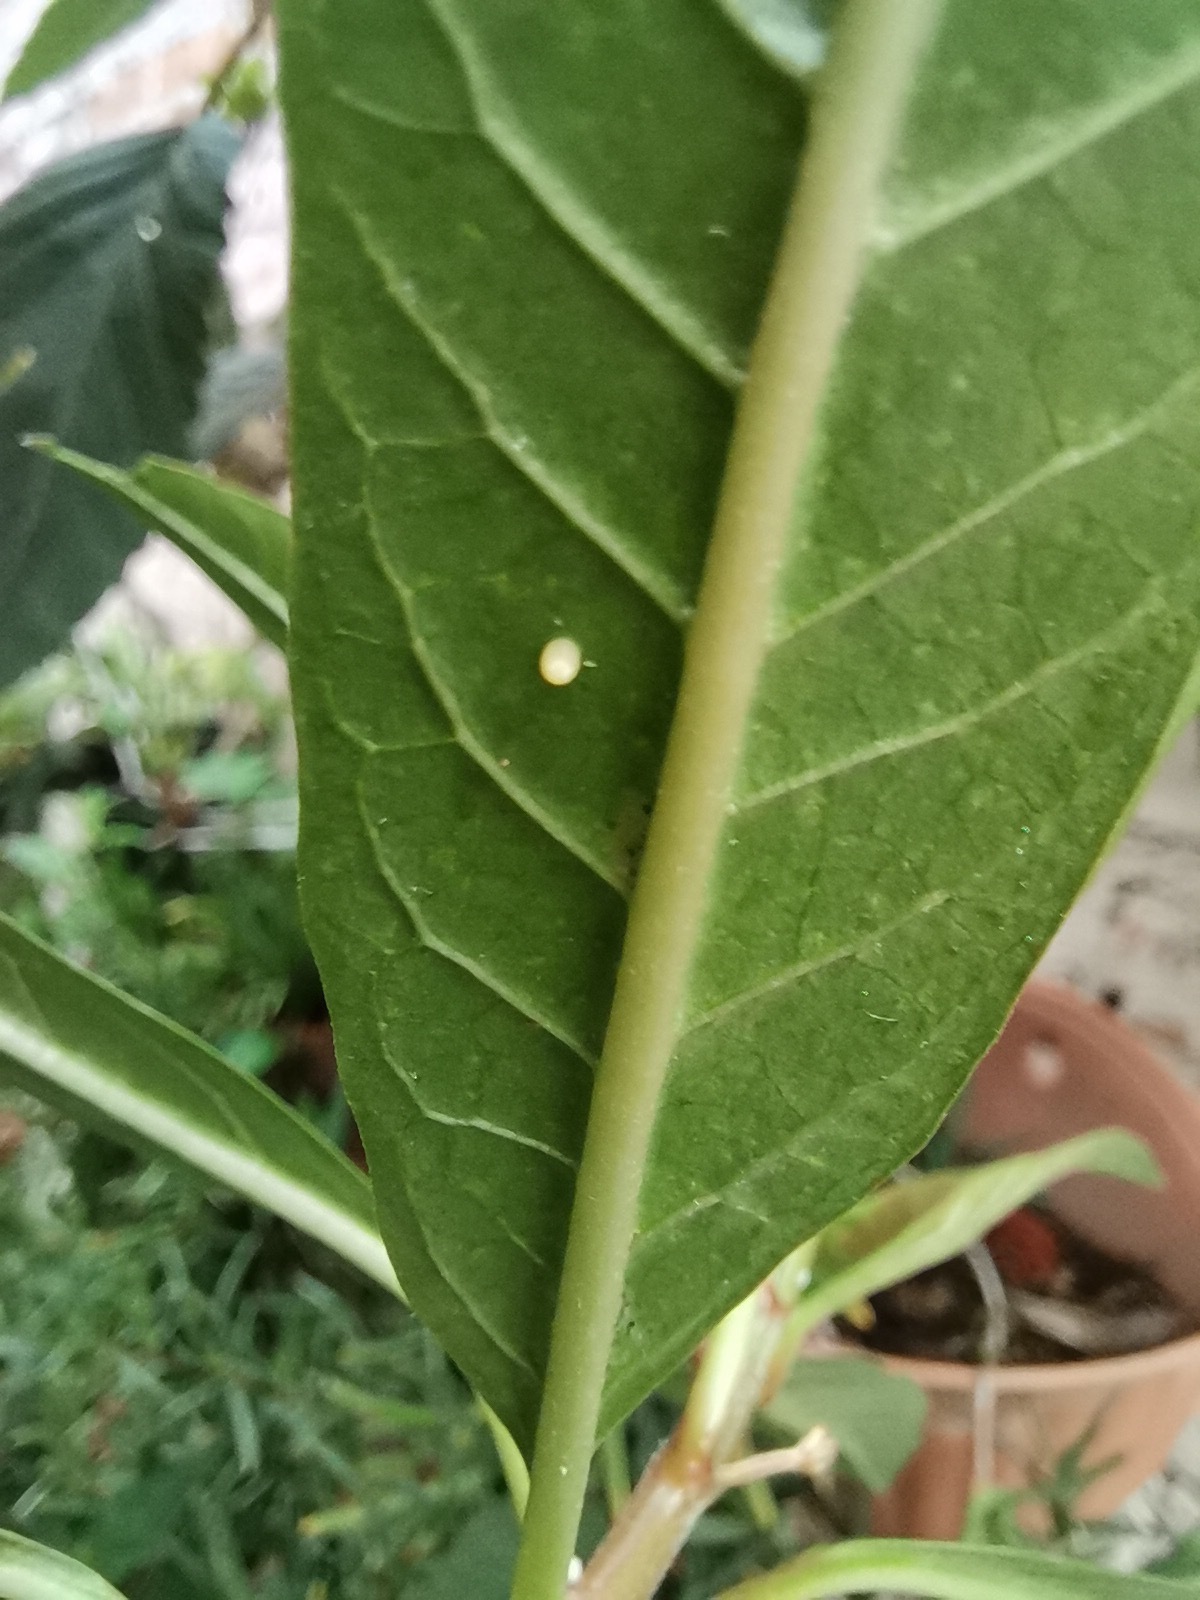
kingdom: Animalia
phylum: Arthropoda
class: Insecta
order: Lepidoptera
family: Nymphalidae
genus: Danaus
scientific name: Danaus plexippus
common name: Monarch
